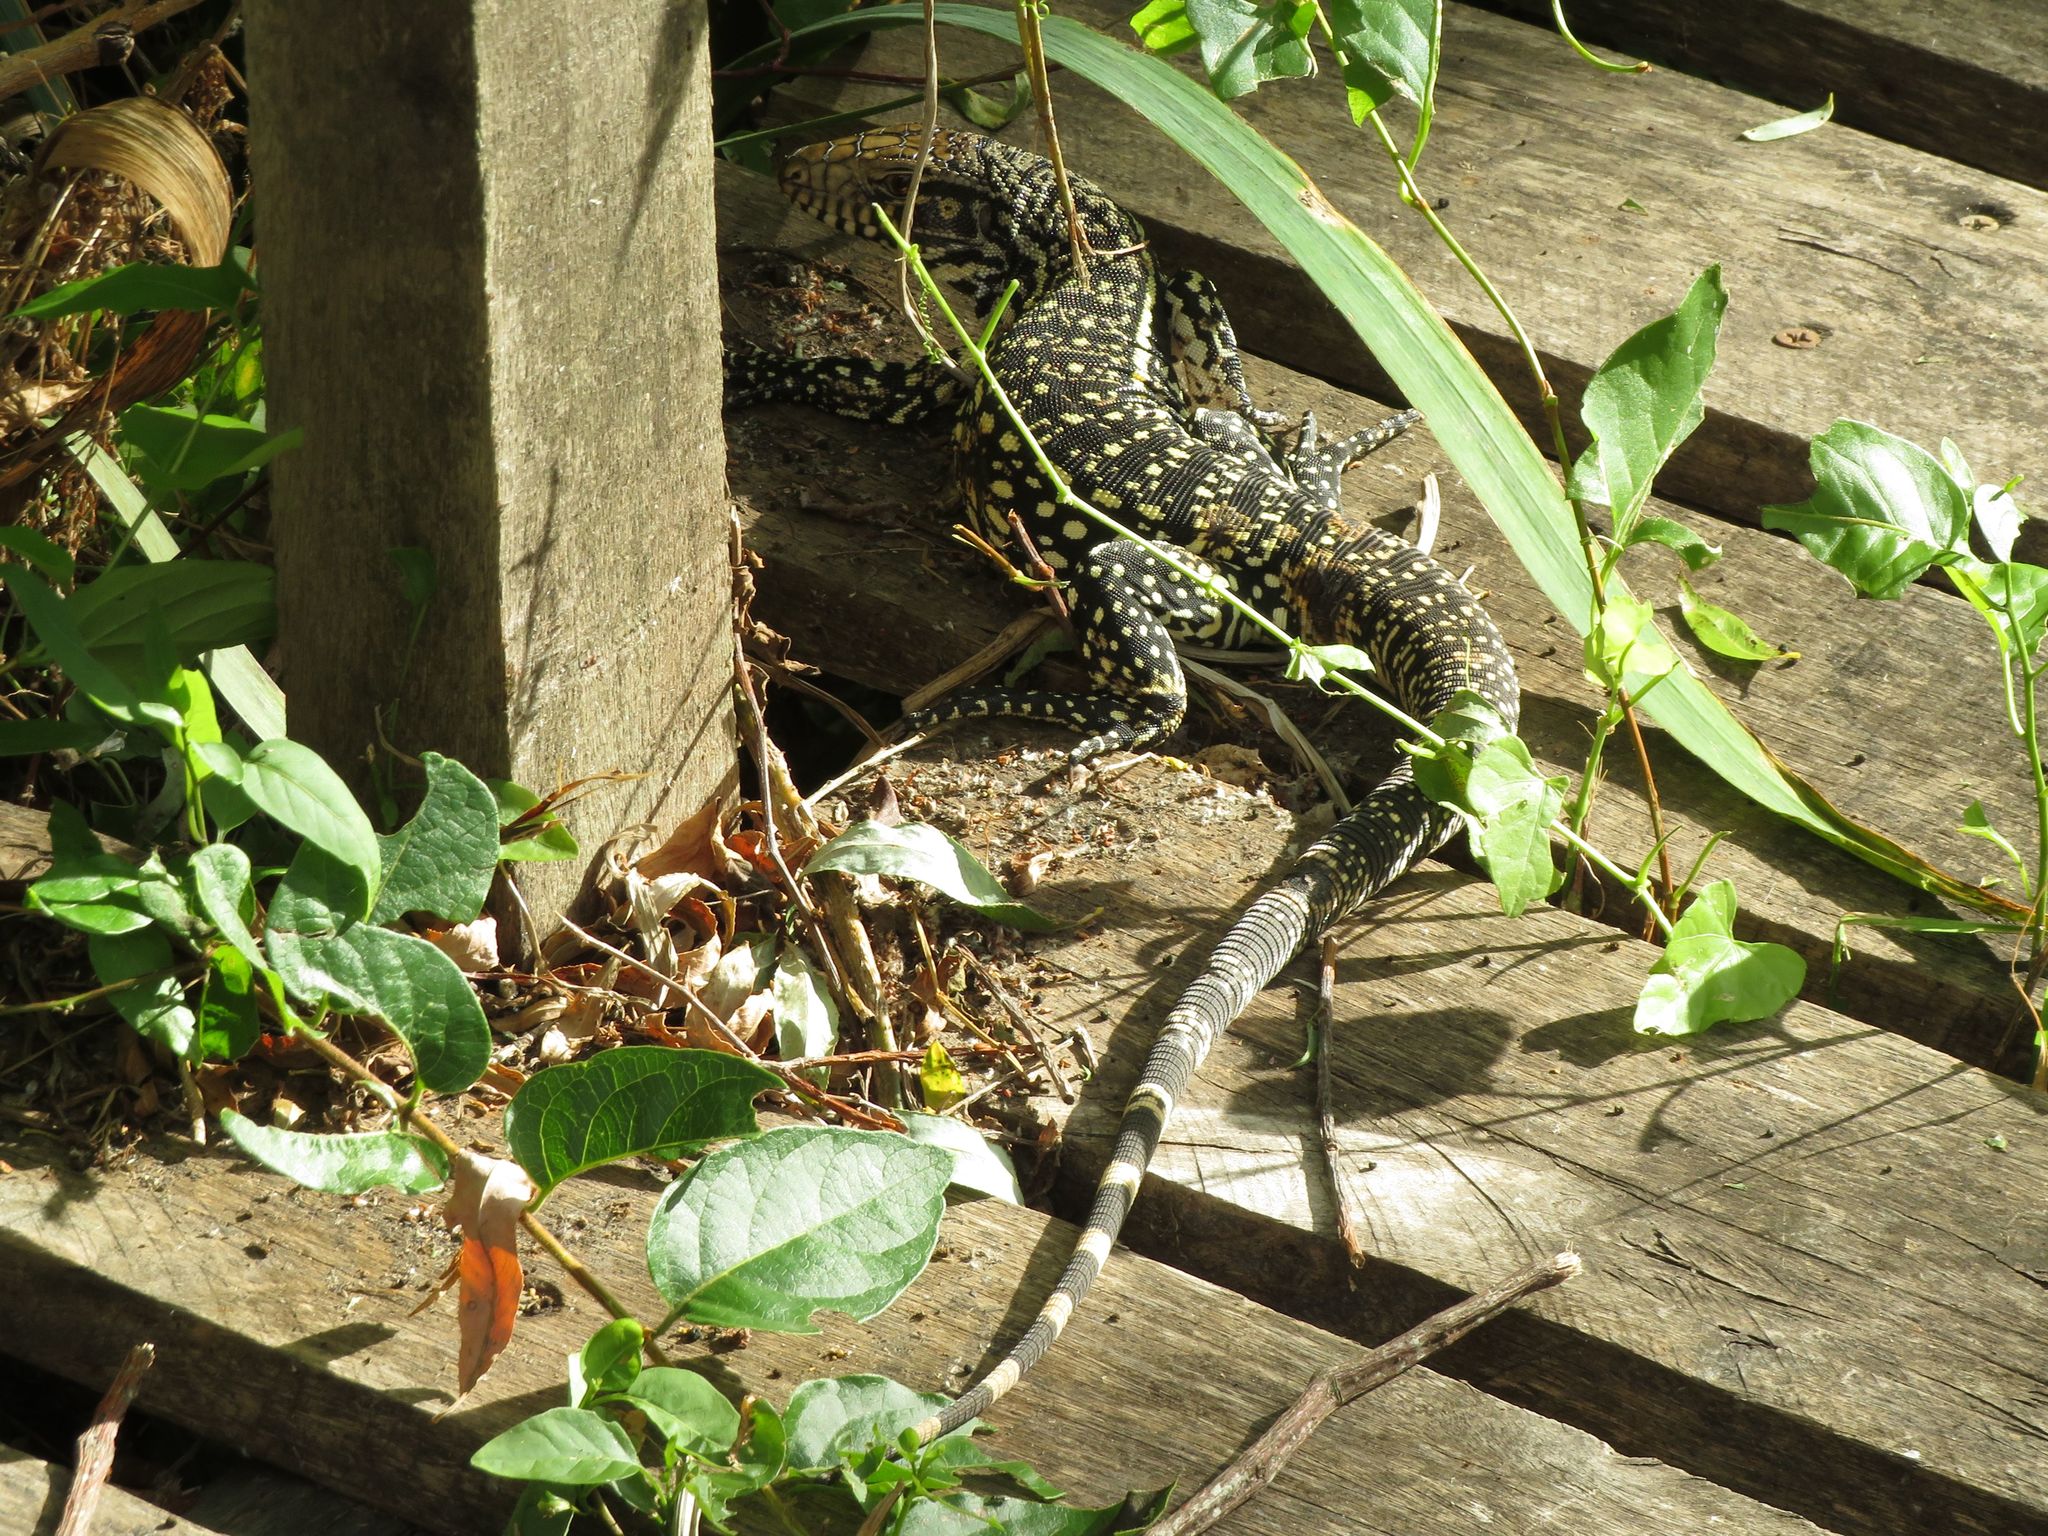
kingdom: Animalia
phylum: Chordata
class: Squamata
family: Teiidae
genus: Salvator
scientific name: Salvator merianae
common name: Argentine black and white tegu
